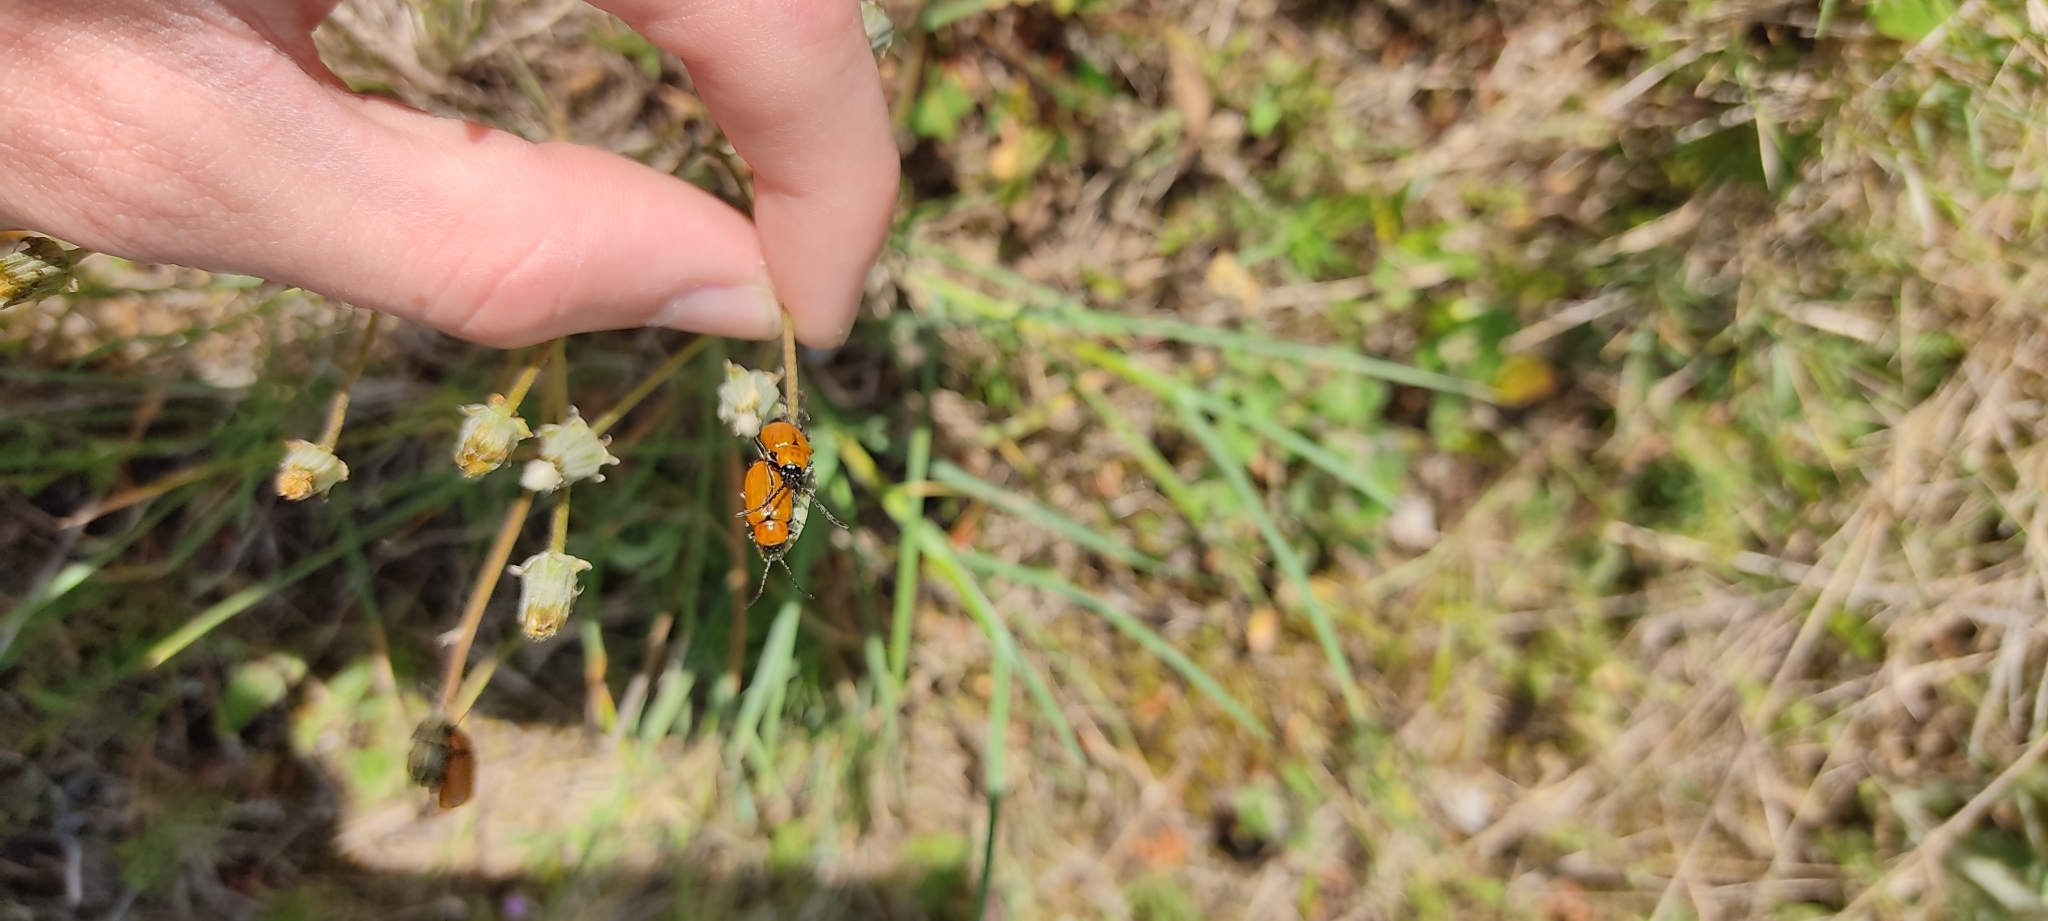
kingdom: Animalia
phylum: Arthropoda
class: Insecta
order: Coleoptera
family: Chrysomelidae
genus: Exosoma
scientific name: Exosoma lusitanicum
